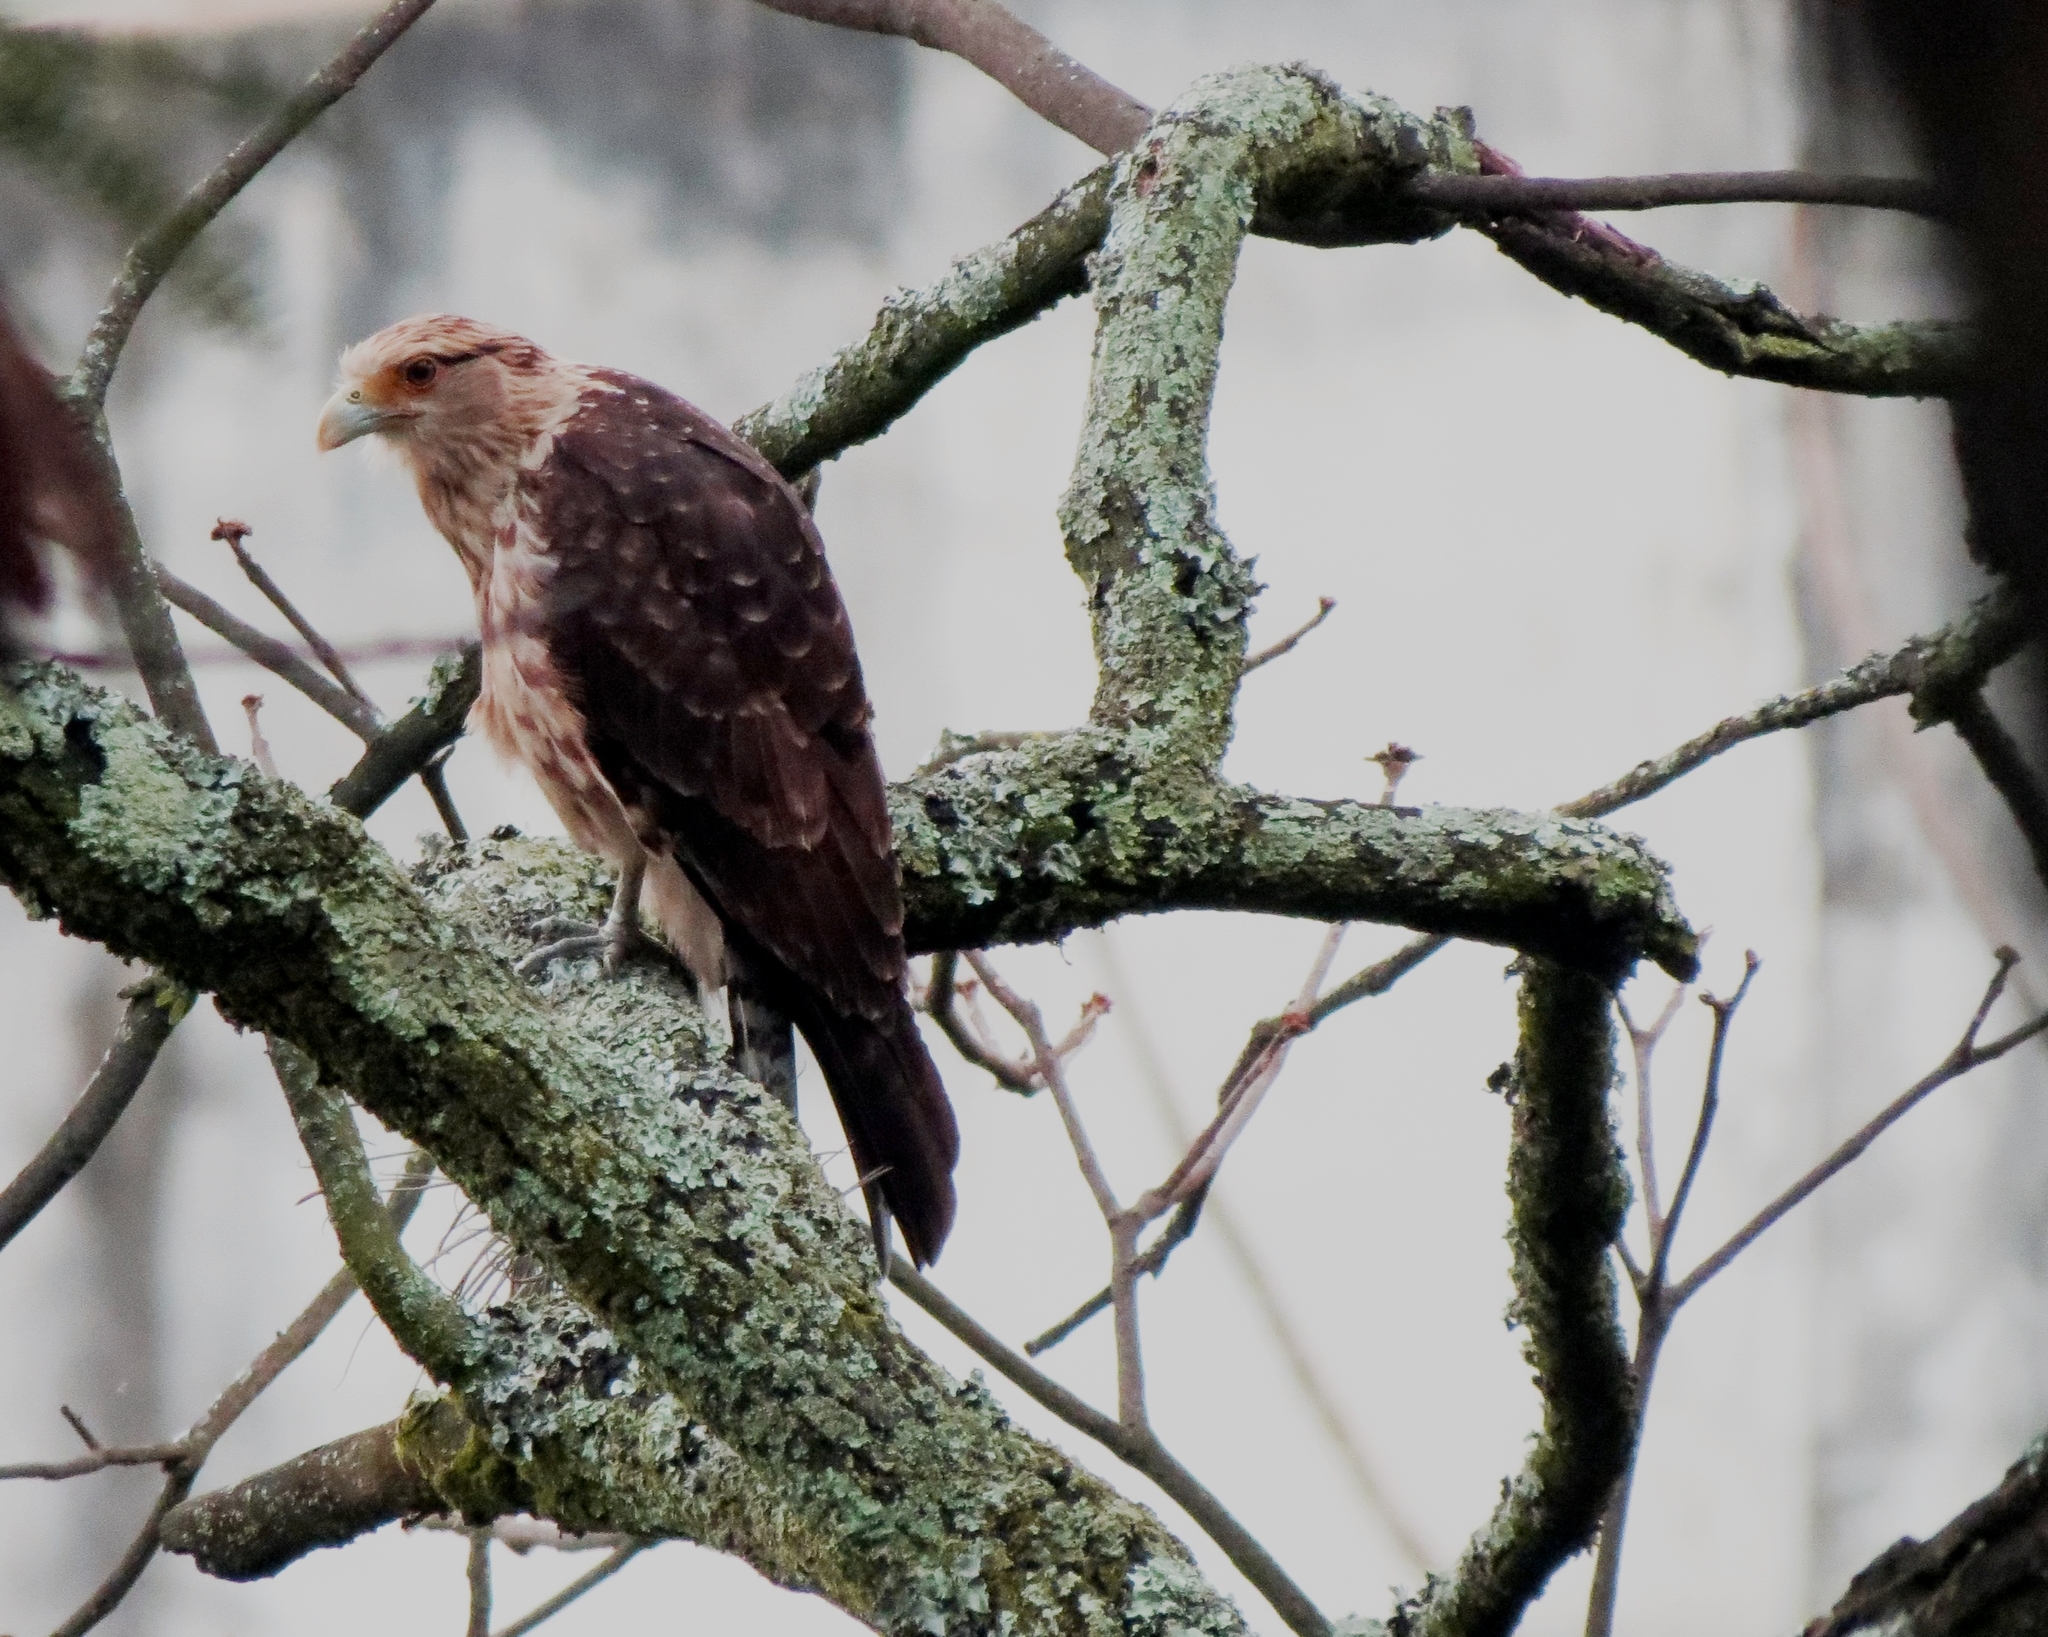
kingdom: Animalia
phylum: Chordata
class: Aves
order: Falconiformes
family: Falconidae
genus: Daptrius
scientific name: Daptrius
